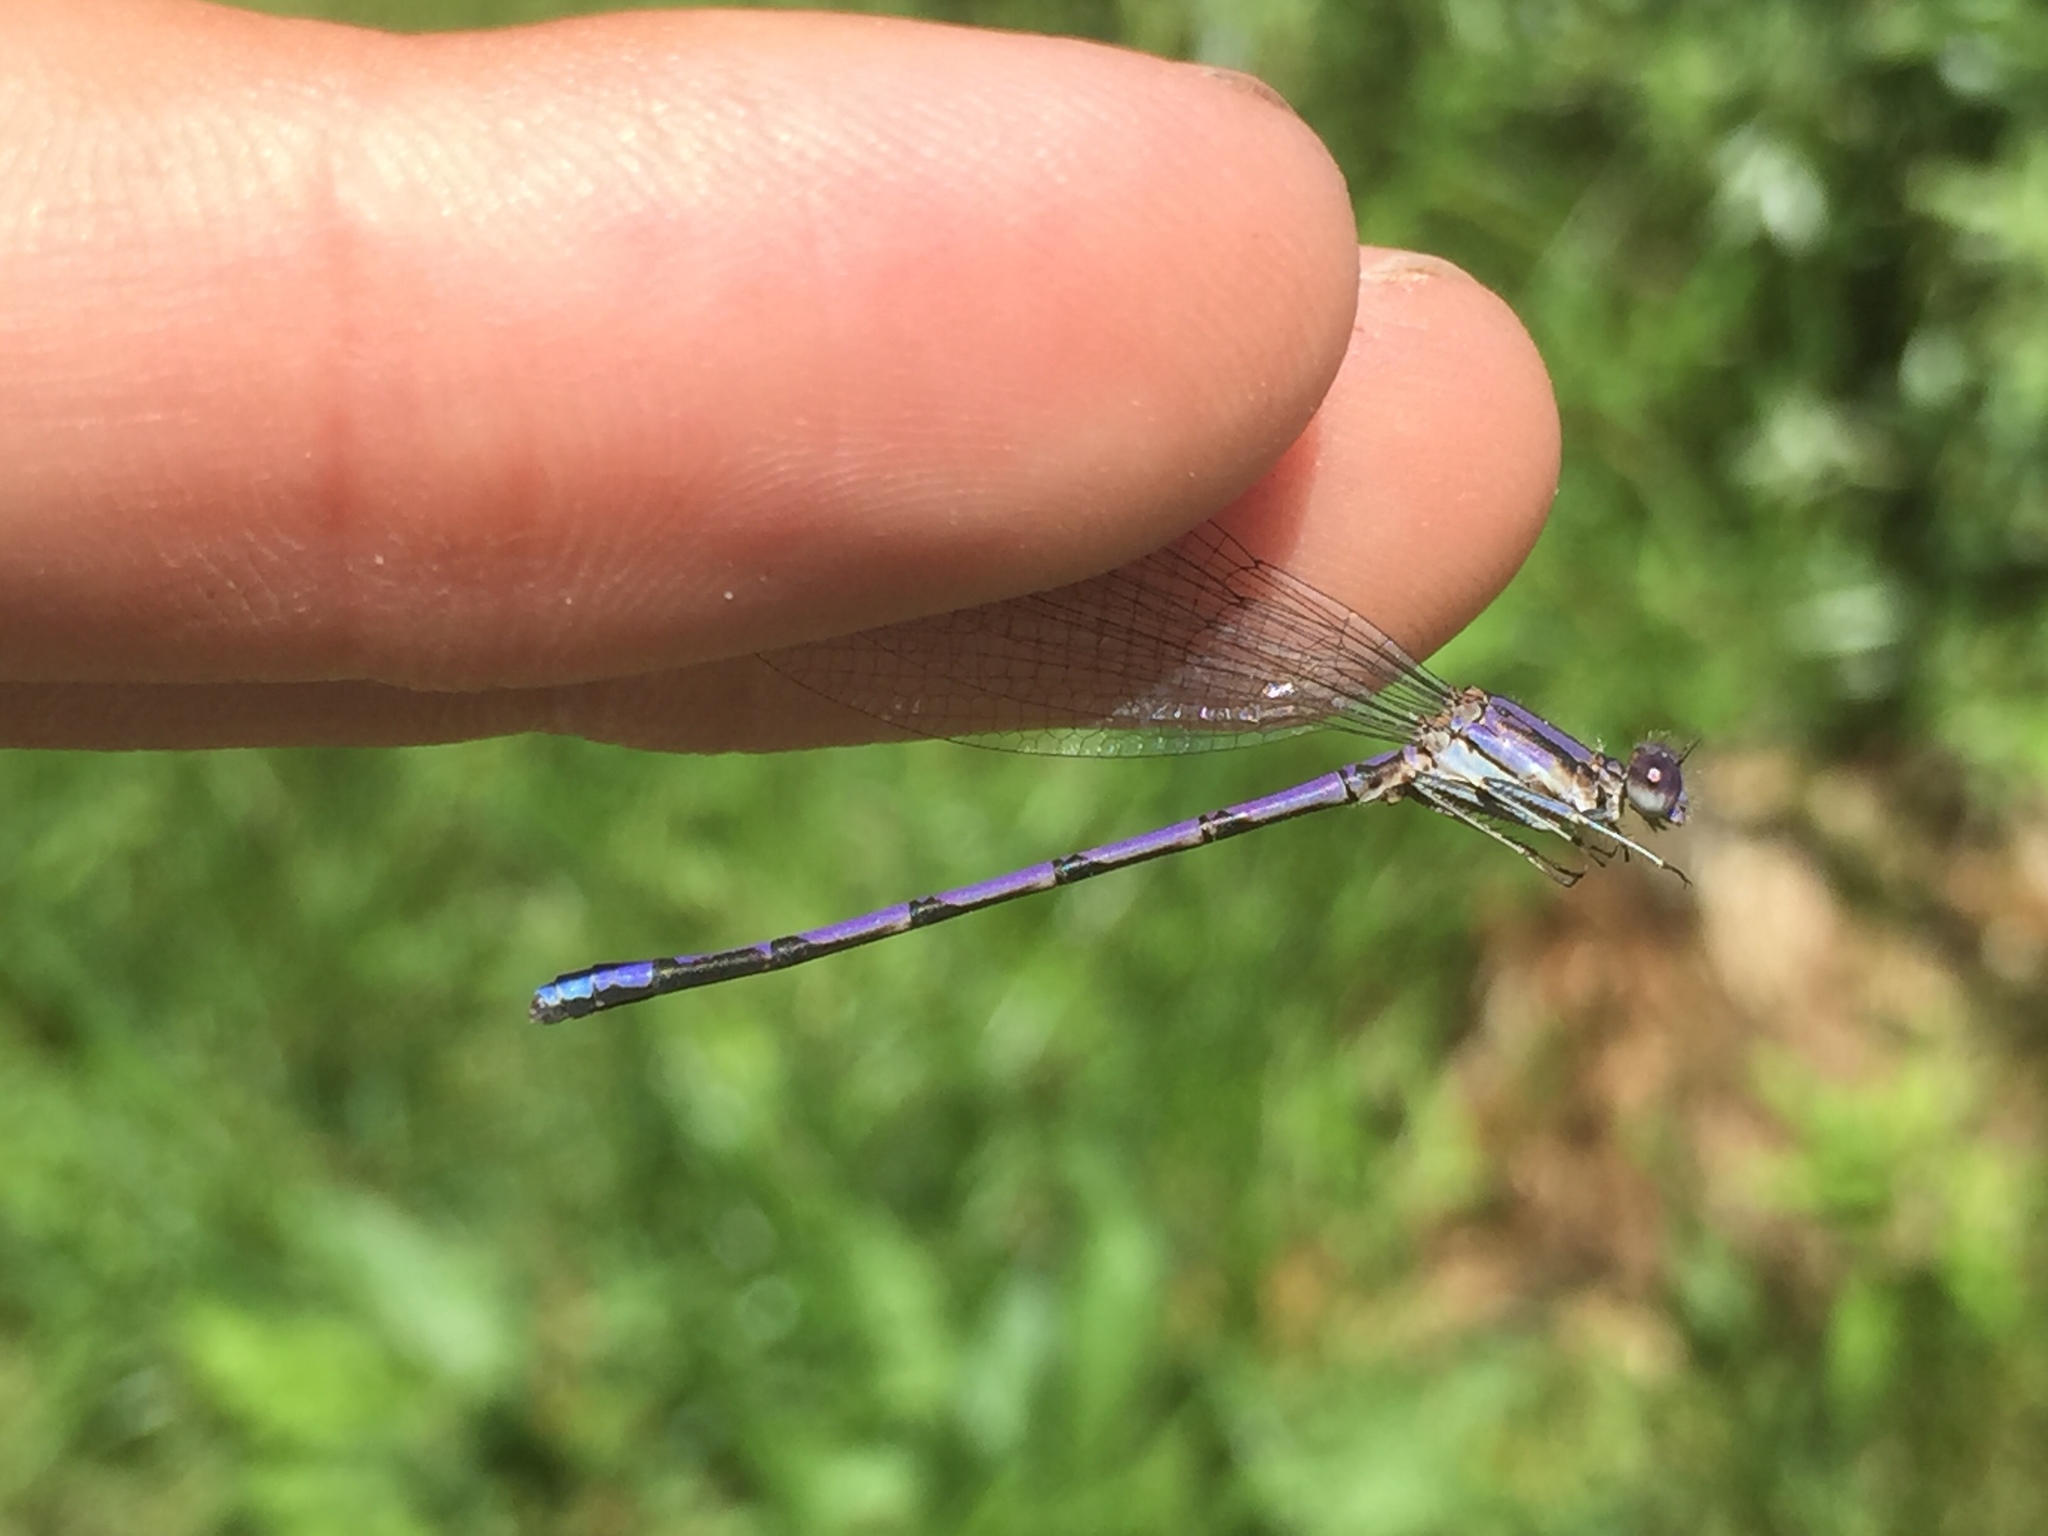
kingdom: Animalia
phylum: Arthropoda
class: Insecta
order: Odonata
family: Coenagrionidae
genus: Argia
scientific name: Argia fumipennis
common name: Variable dancer
